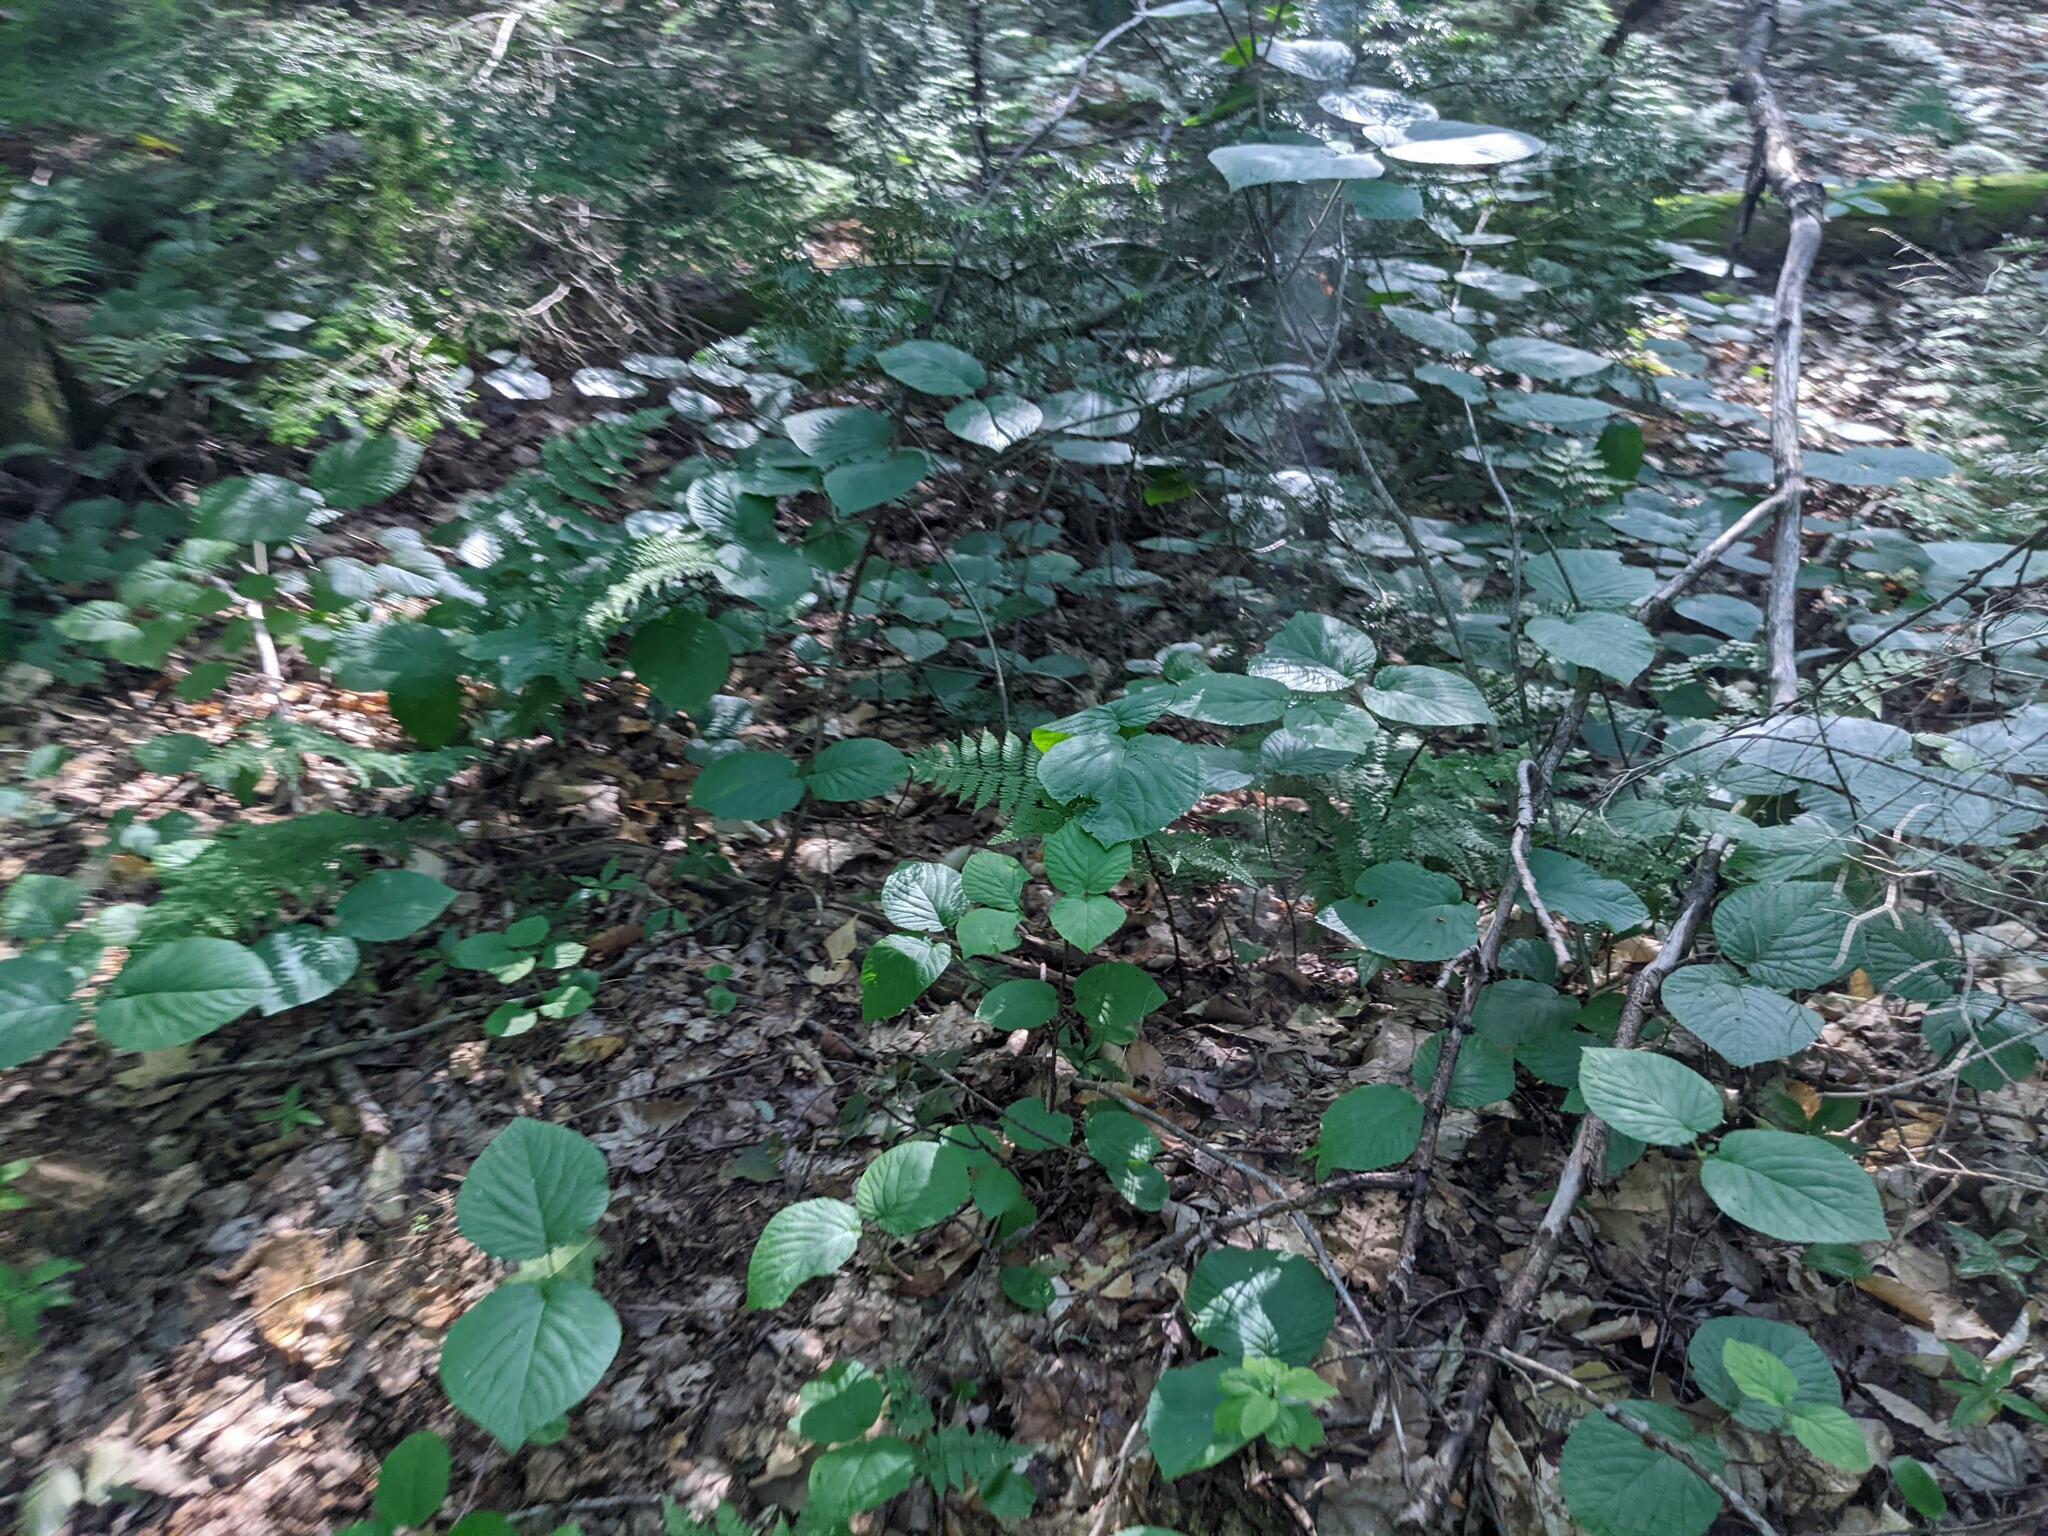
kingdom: Plantae
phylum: Tracheophyta
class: Magnoliopsida
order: Dipsacales
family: Viburnaceae
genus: Viburnum
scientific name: Viburnum lantanoides
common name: Hobblebush
